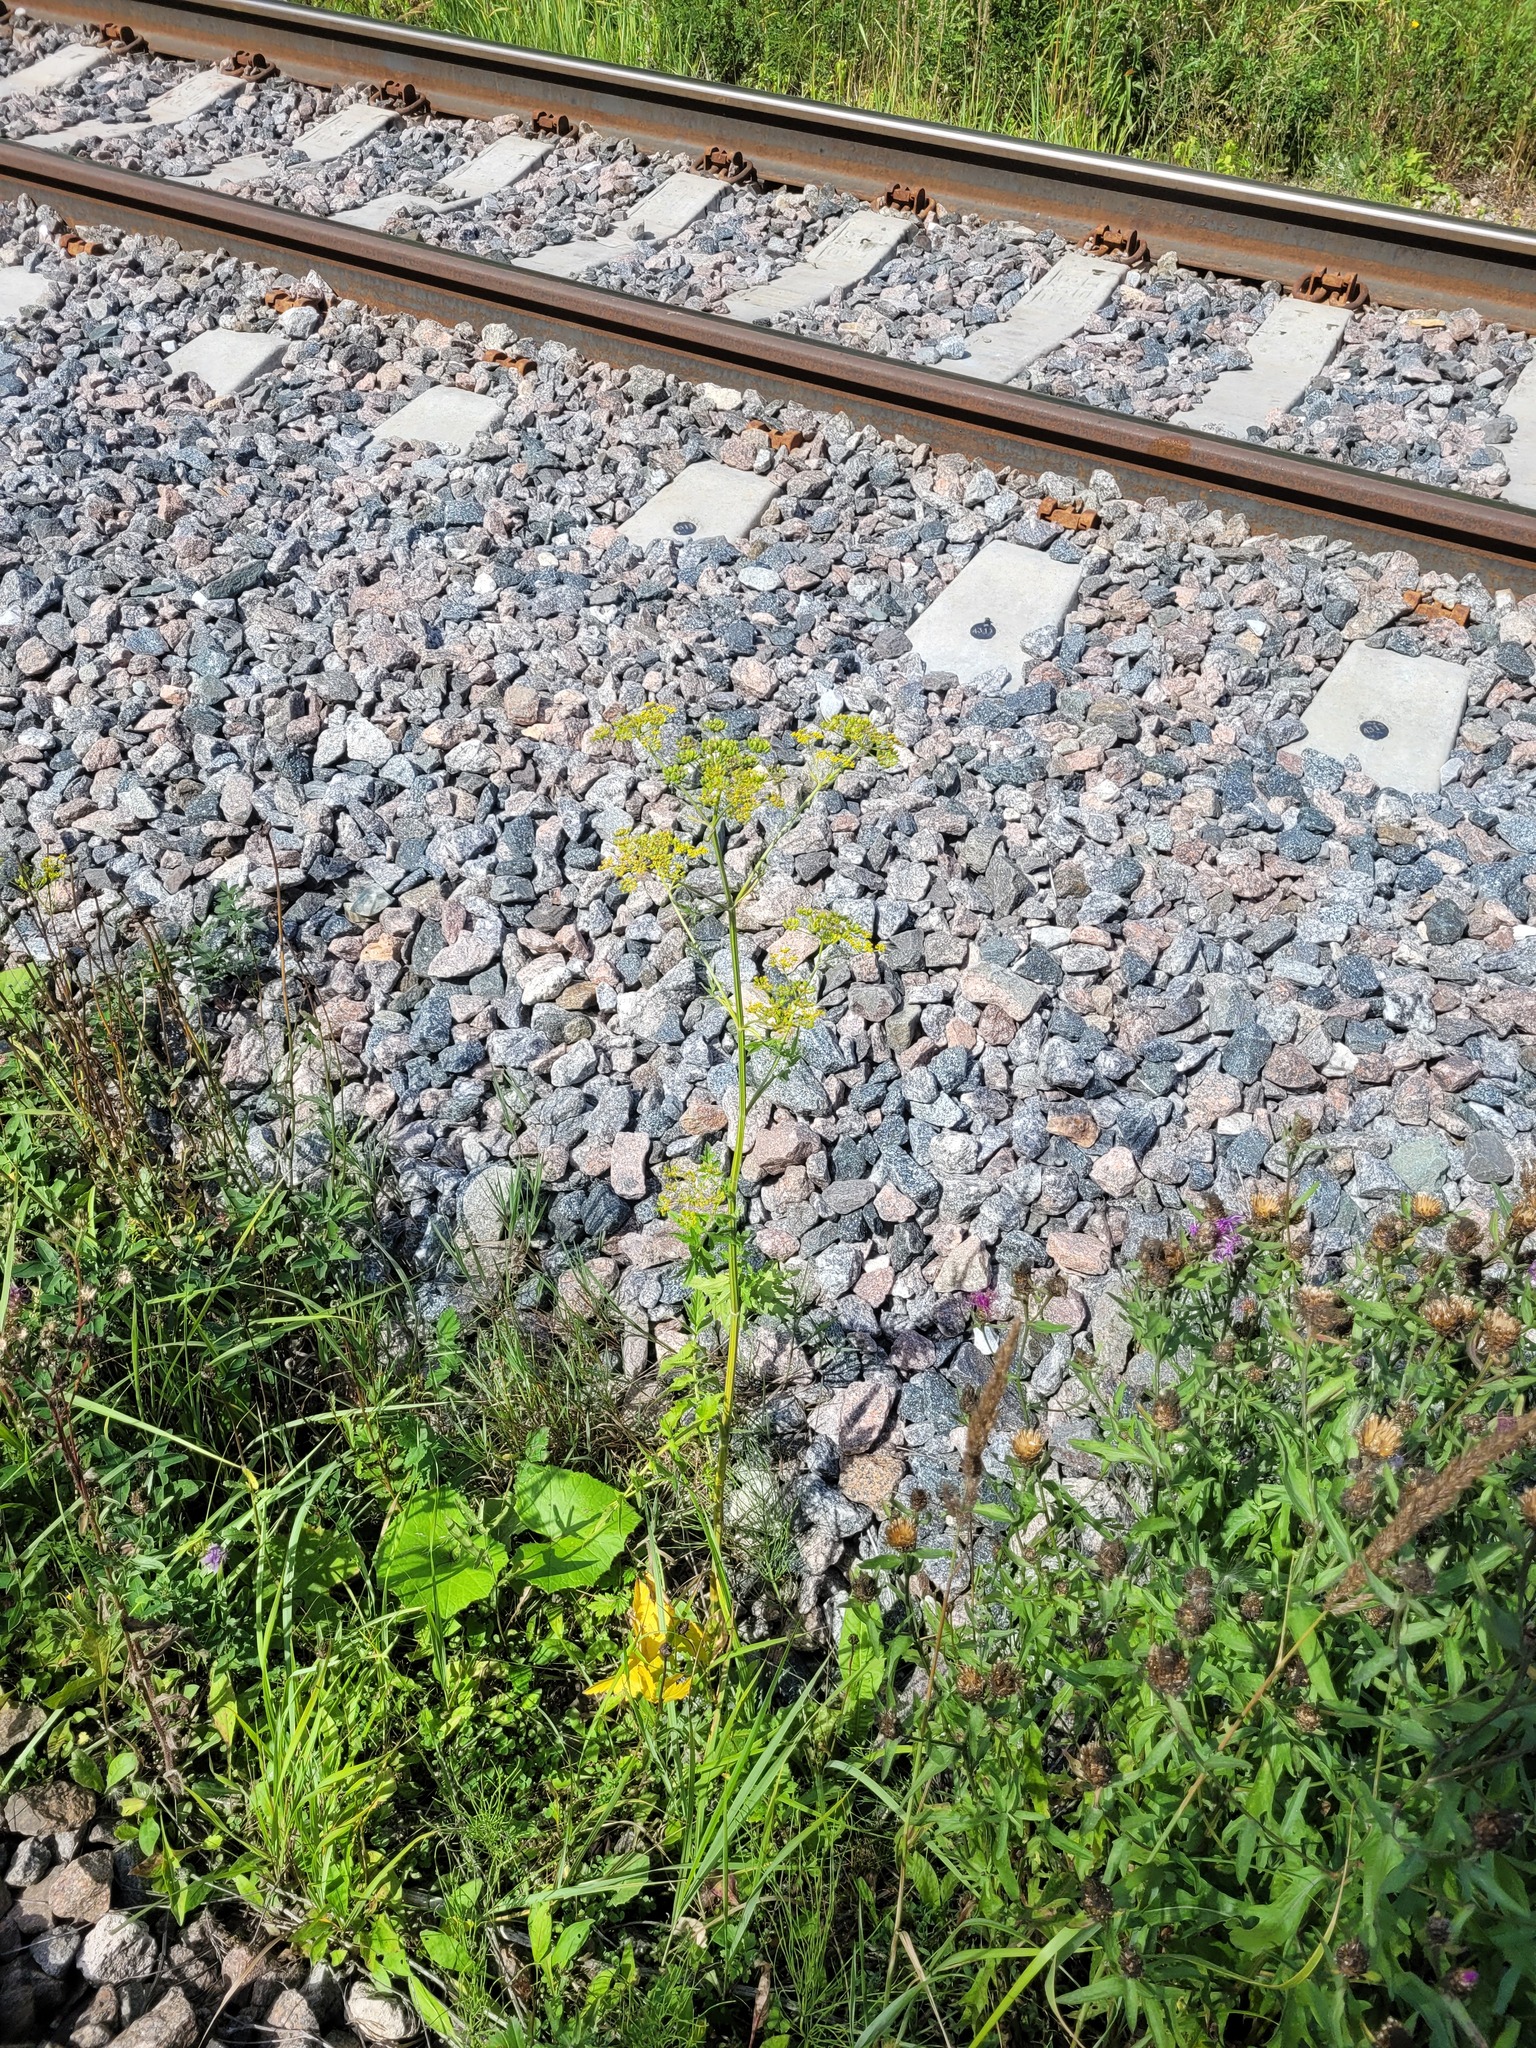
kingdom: Plantae
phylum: Tracheophyta
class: Magnoliopsida
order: Apiales
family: Apiaceae
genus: Pastinaca
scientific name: Pastinaca sativa
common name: Wild parsnip
